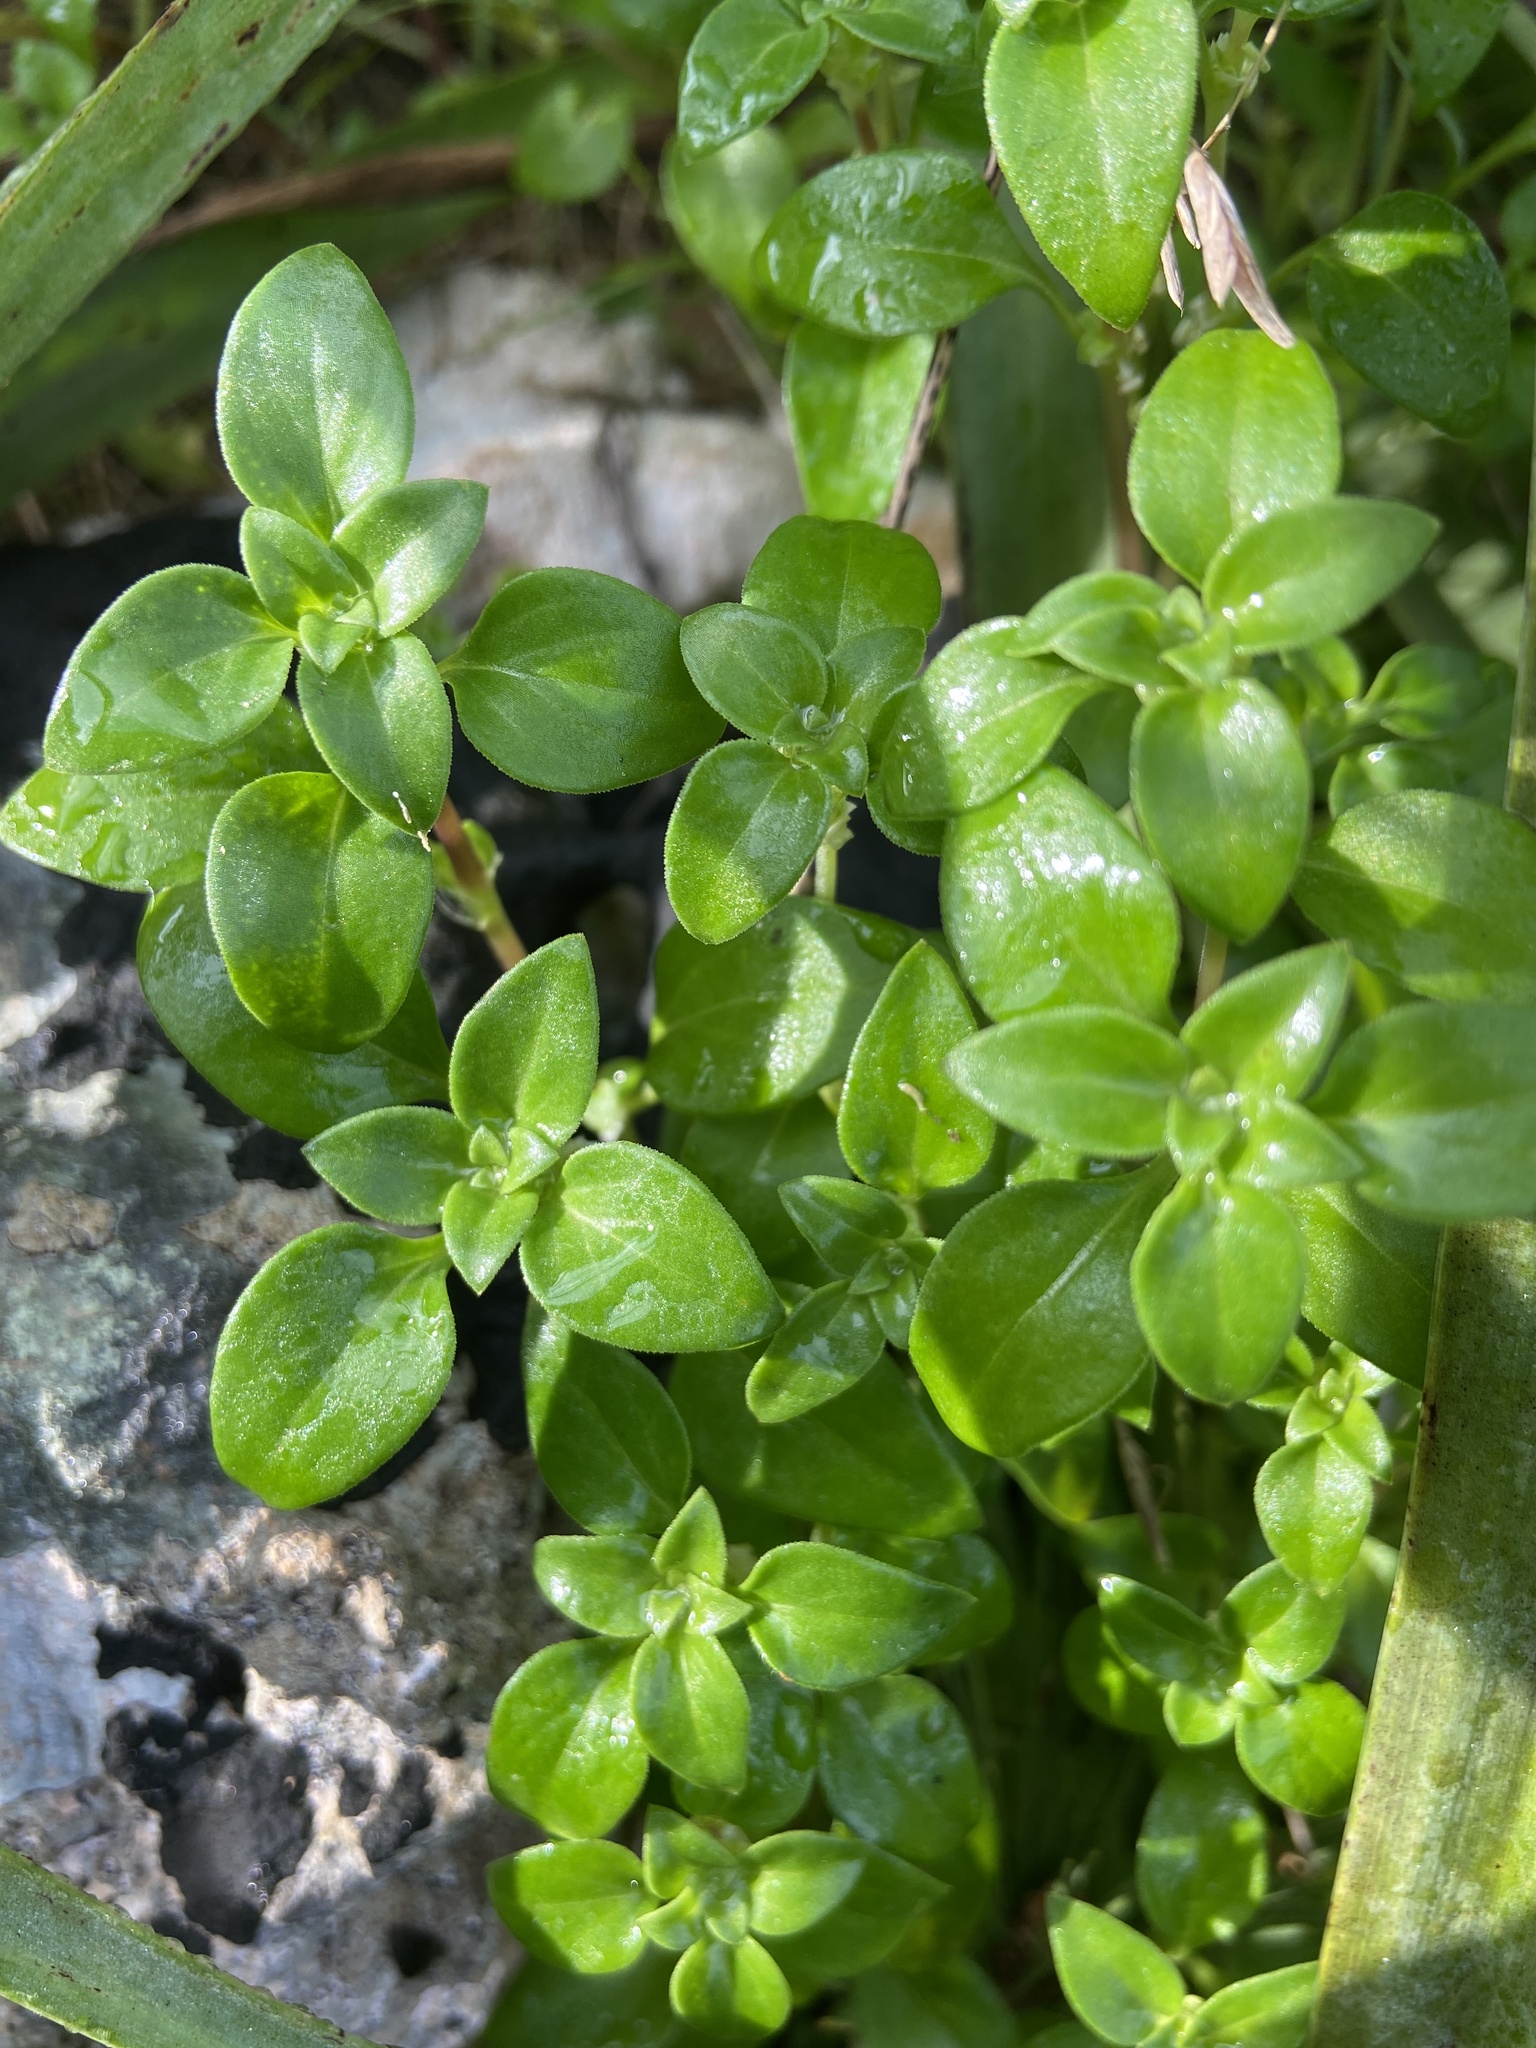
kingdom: Plantae
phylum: Tracheophyta
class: Magnoliopsida
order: Gentianales
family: Rubiaceae
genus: Theligonum
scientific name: Theligonum cynocrambe
